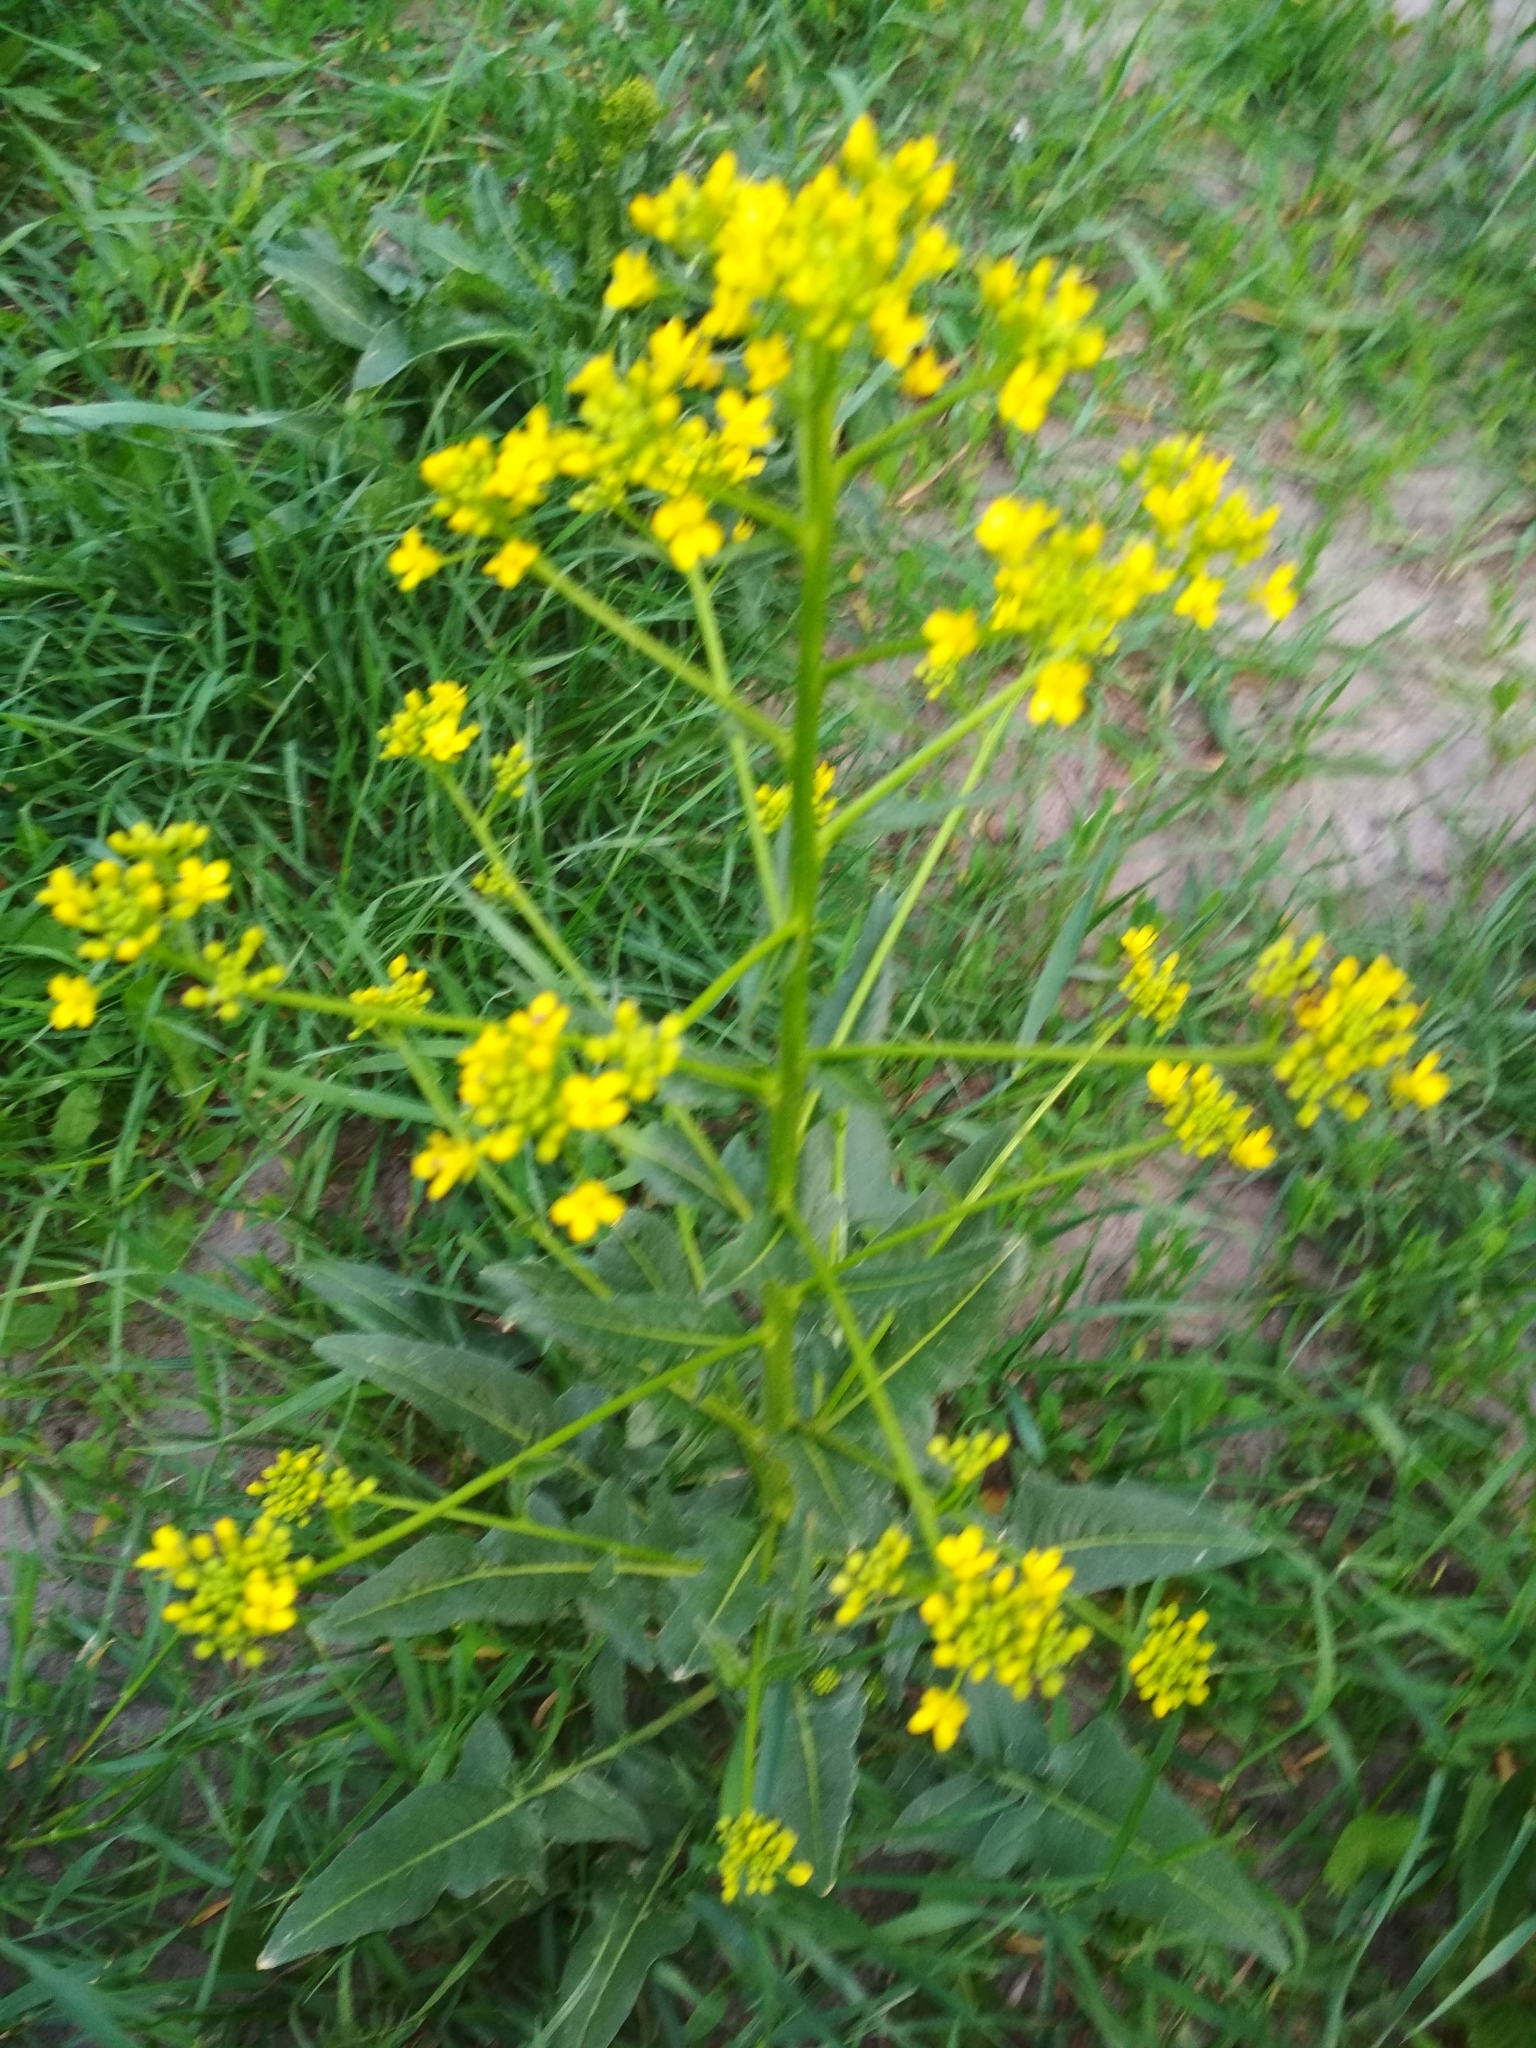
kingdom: Plantae
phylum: Tracheophyta
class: Magnoliopsida
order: Brassicales
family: Brassicaceae
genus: Bunias
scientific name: Bunias orientalis
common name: Warty-cabbage
